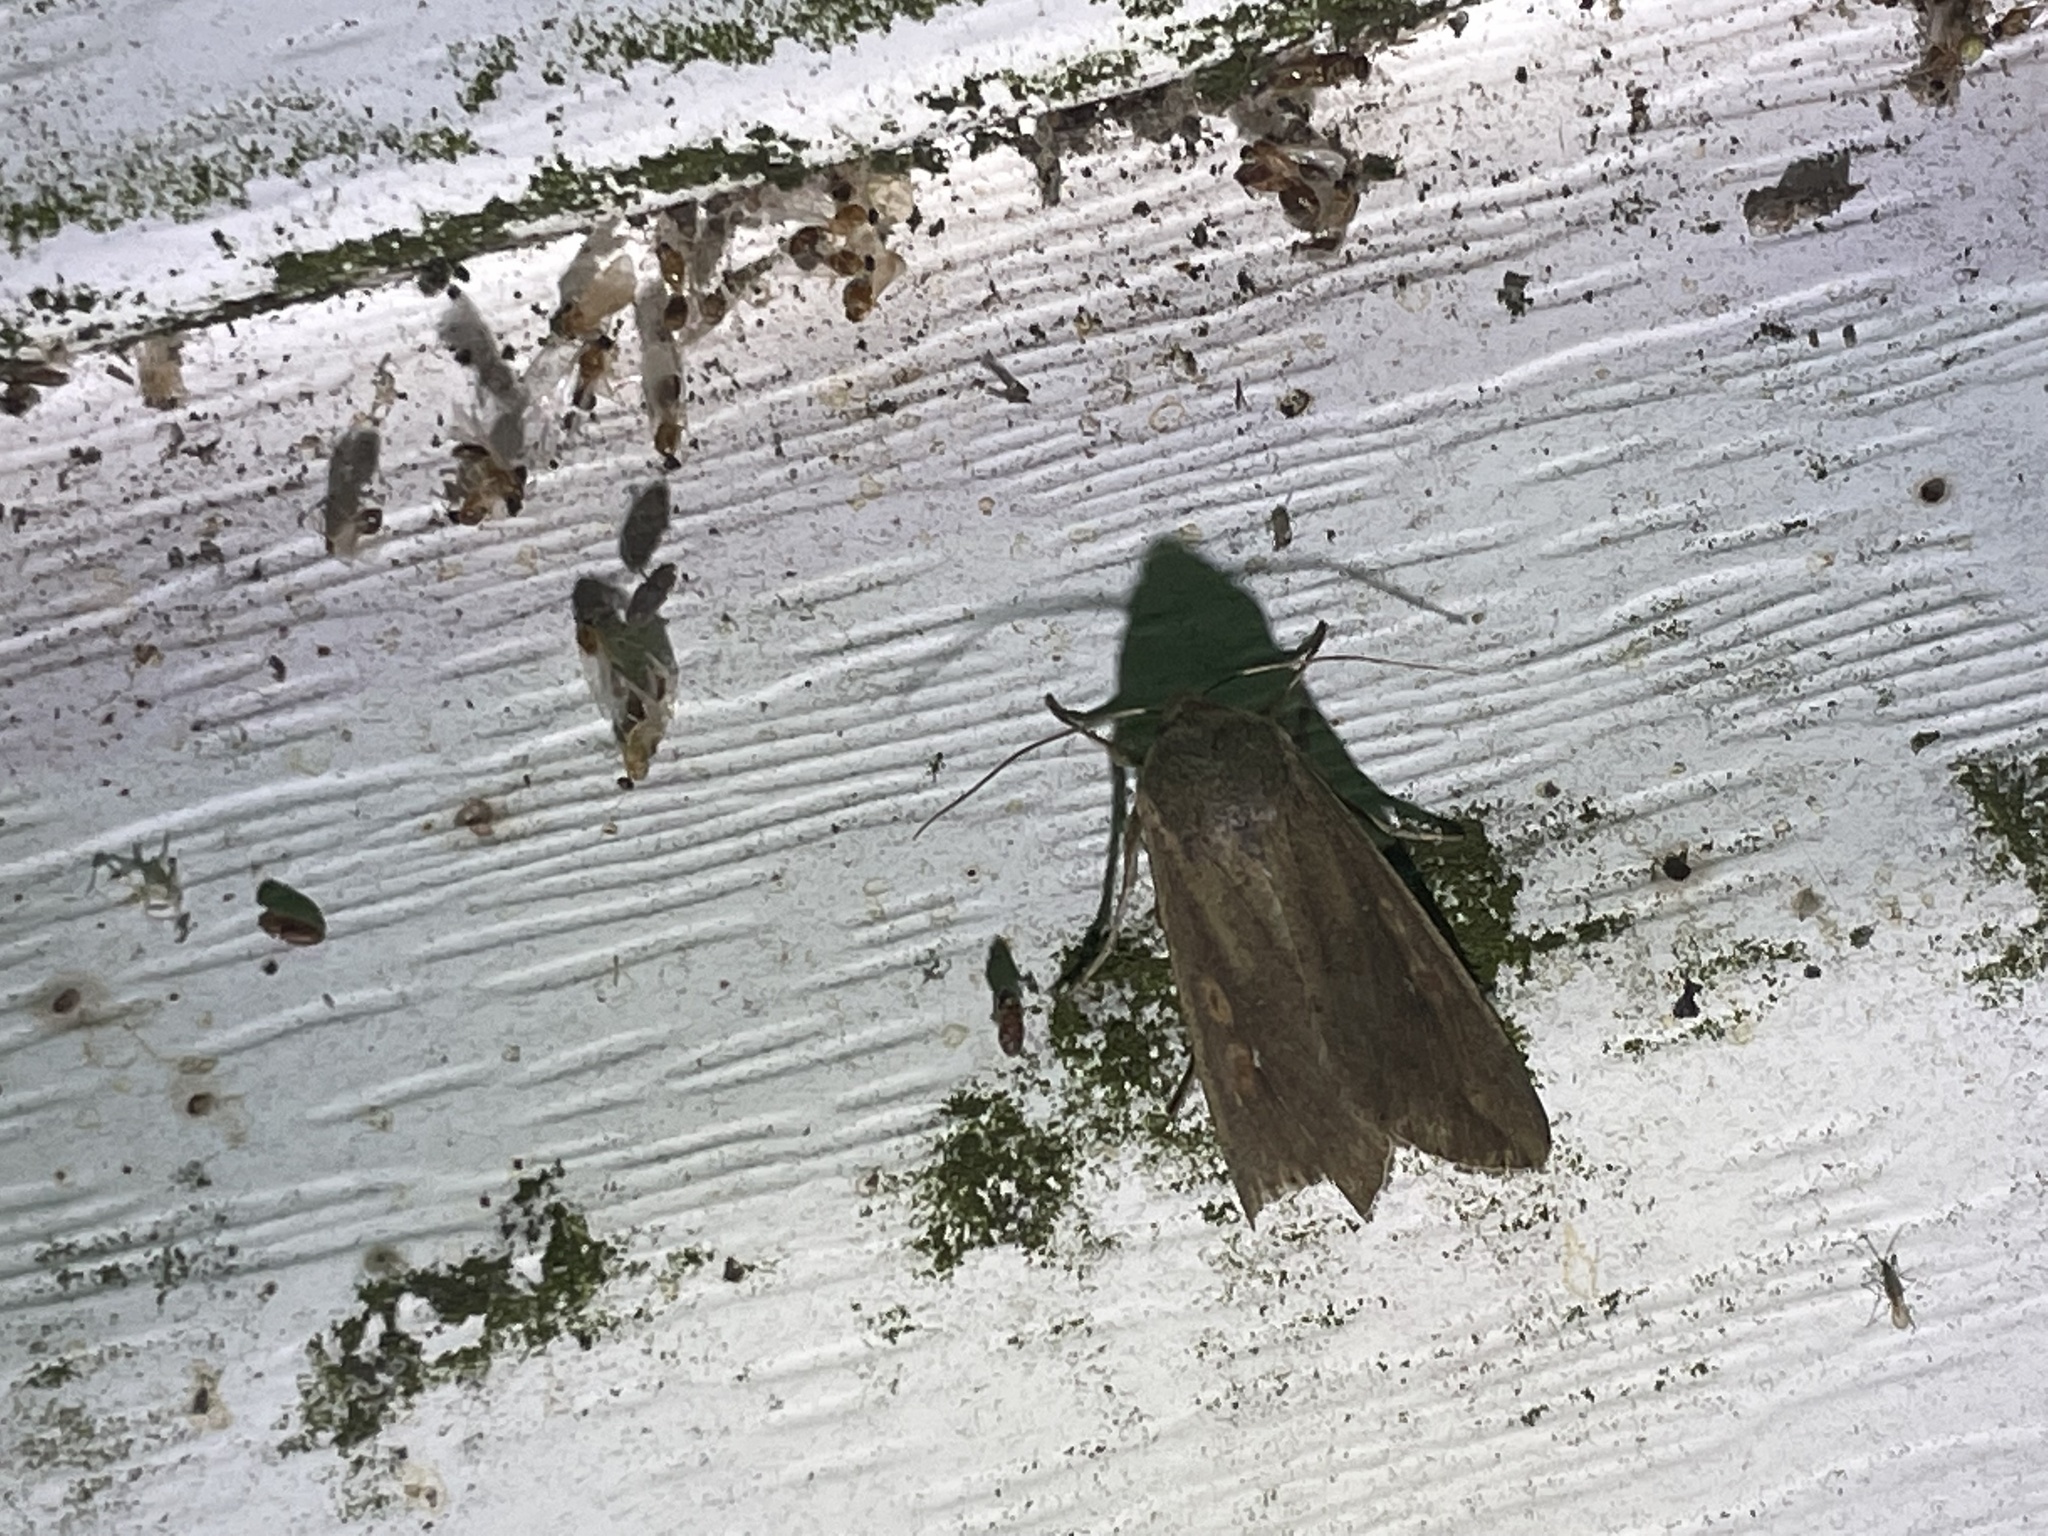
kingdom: Animalia
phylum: Arthropoda
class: Insecta
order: Lepidoptera
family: Noctuidae
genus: Mythimna
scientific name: Mythimna unipuncta
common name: White-speck
